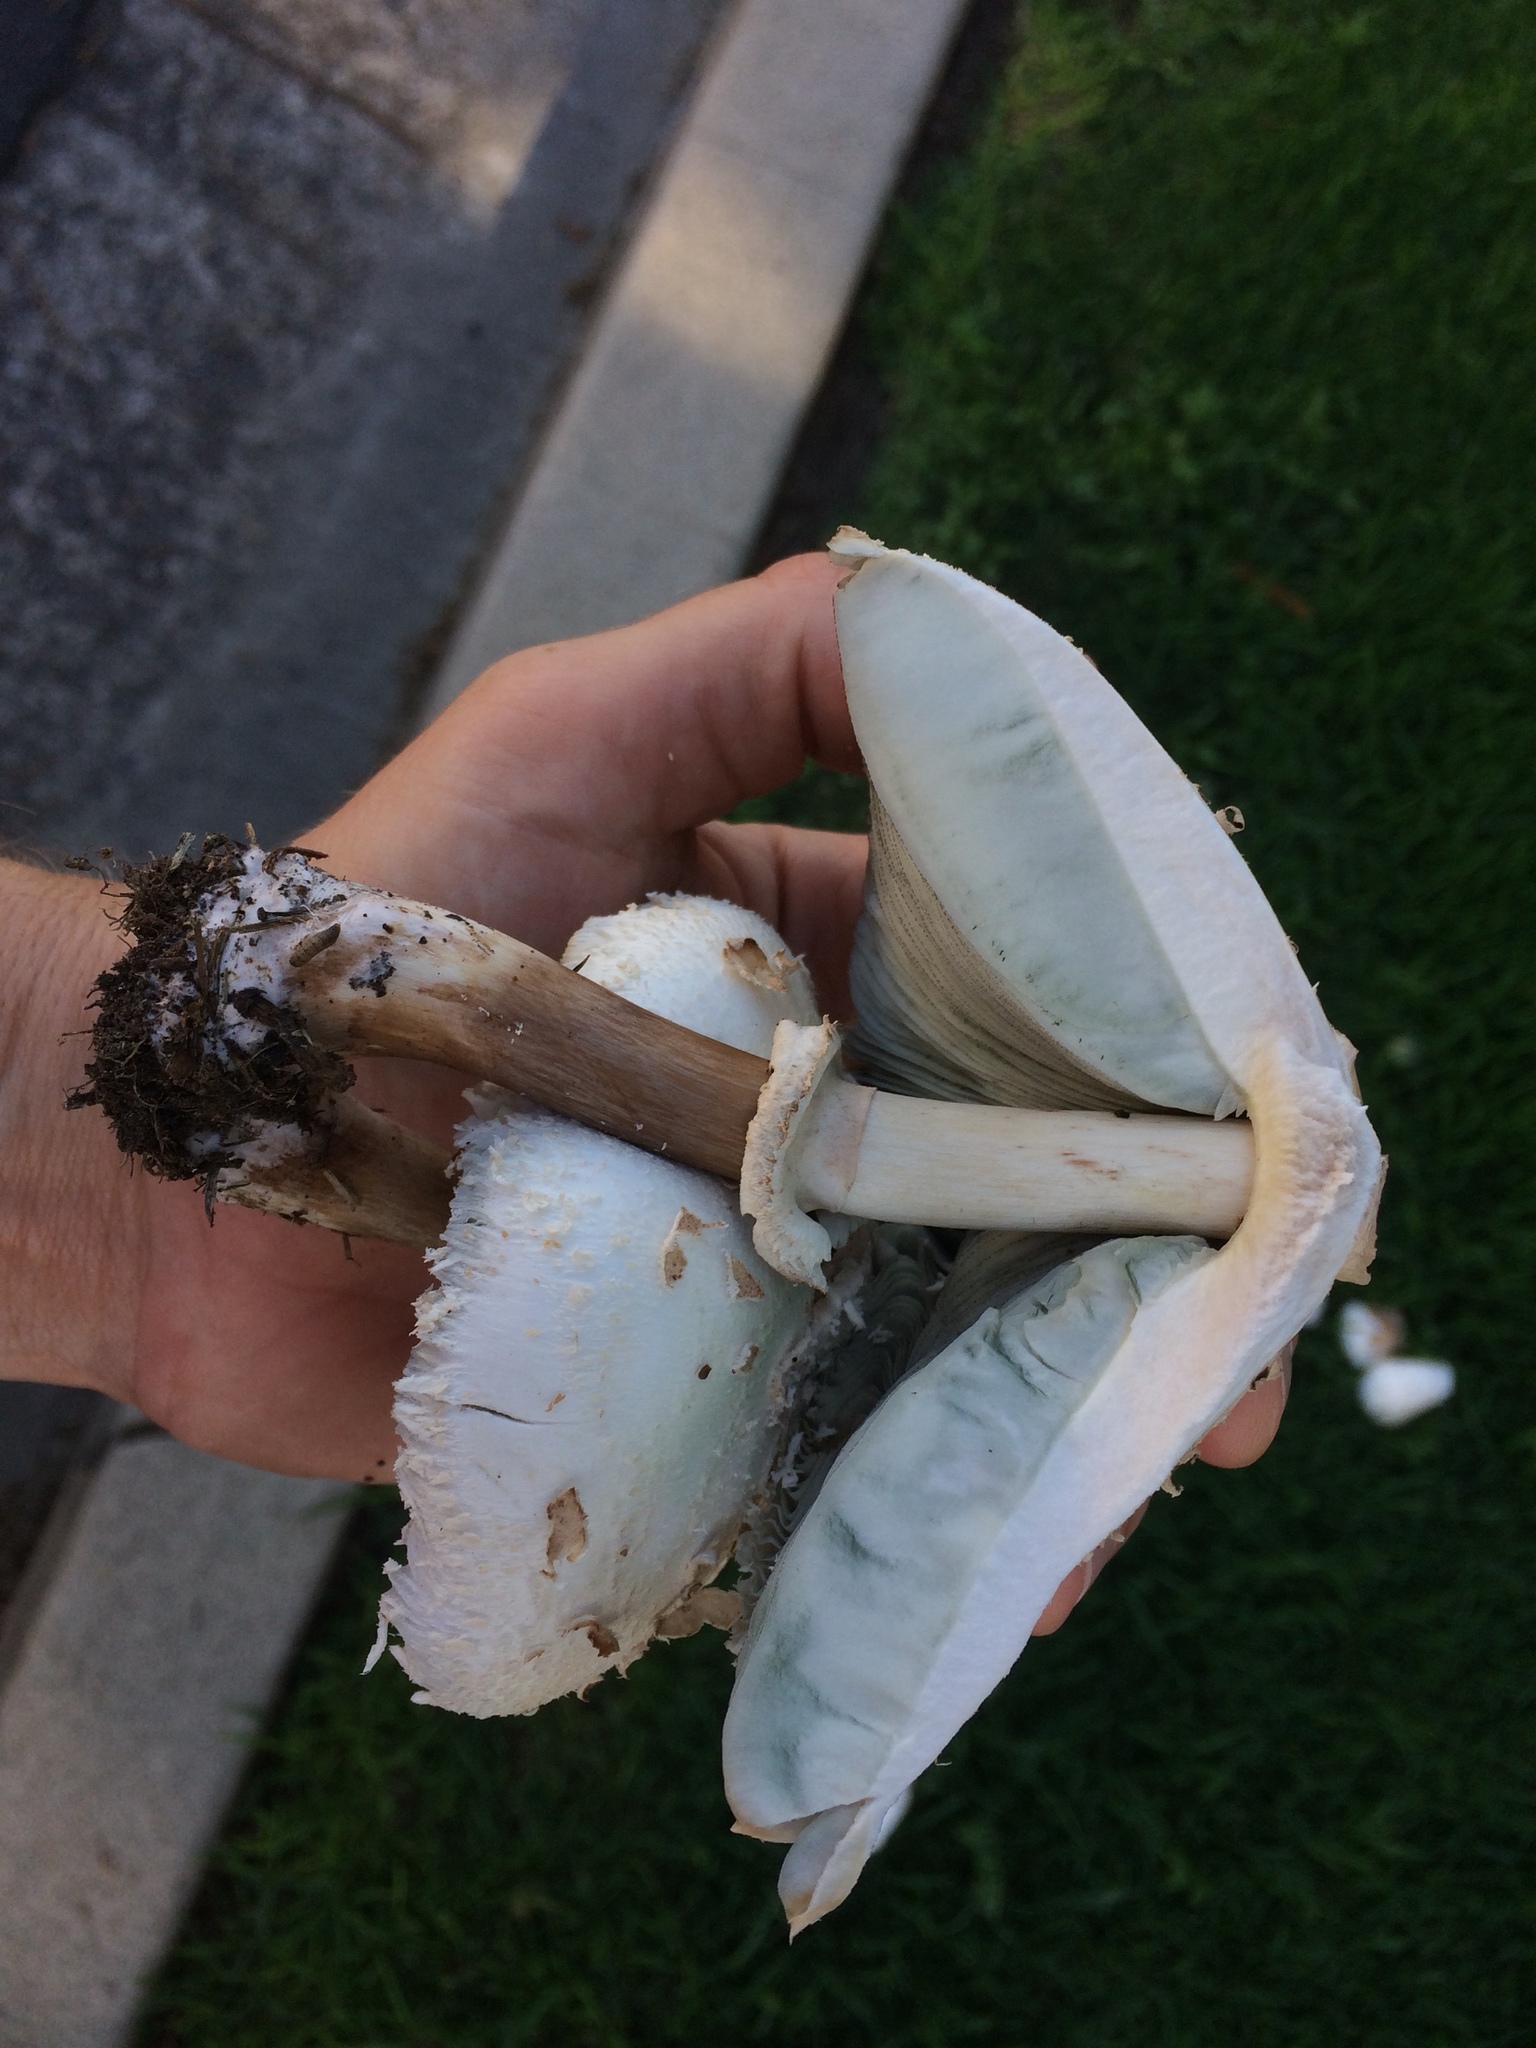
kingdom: Fungi
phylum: Basidiomycota
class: Agaricomycetes
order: Agaricales
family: Agaricaceae
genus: Chlorophyllum
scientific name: Chlorophyllum molybdites
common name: False parasol
